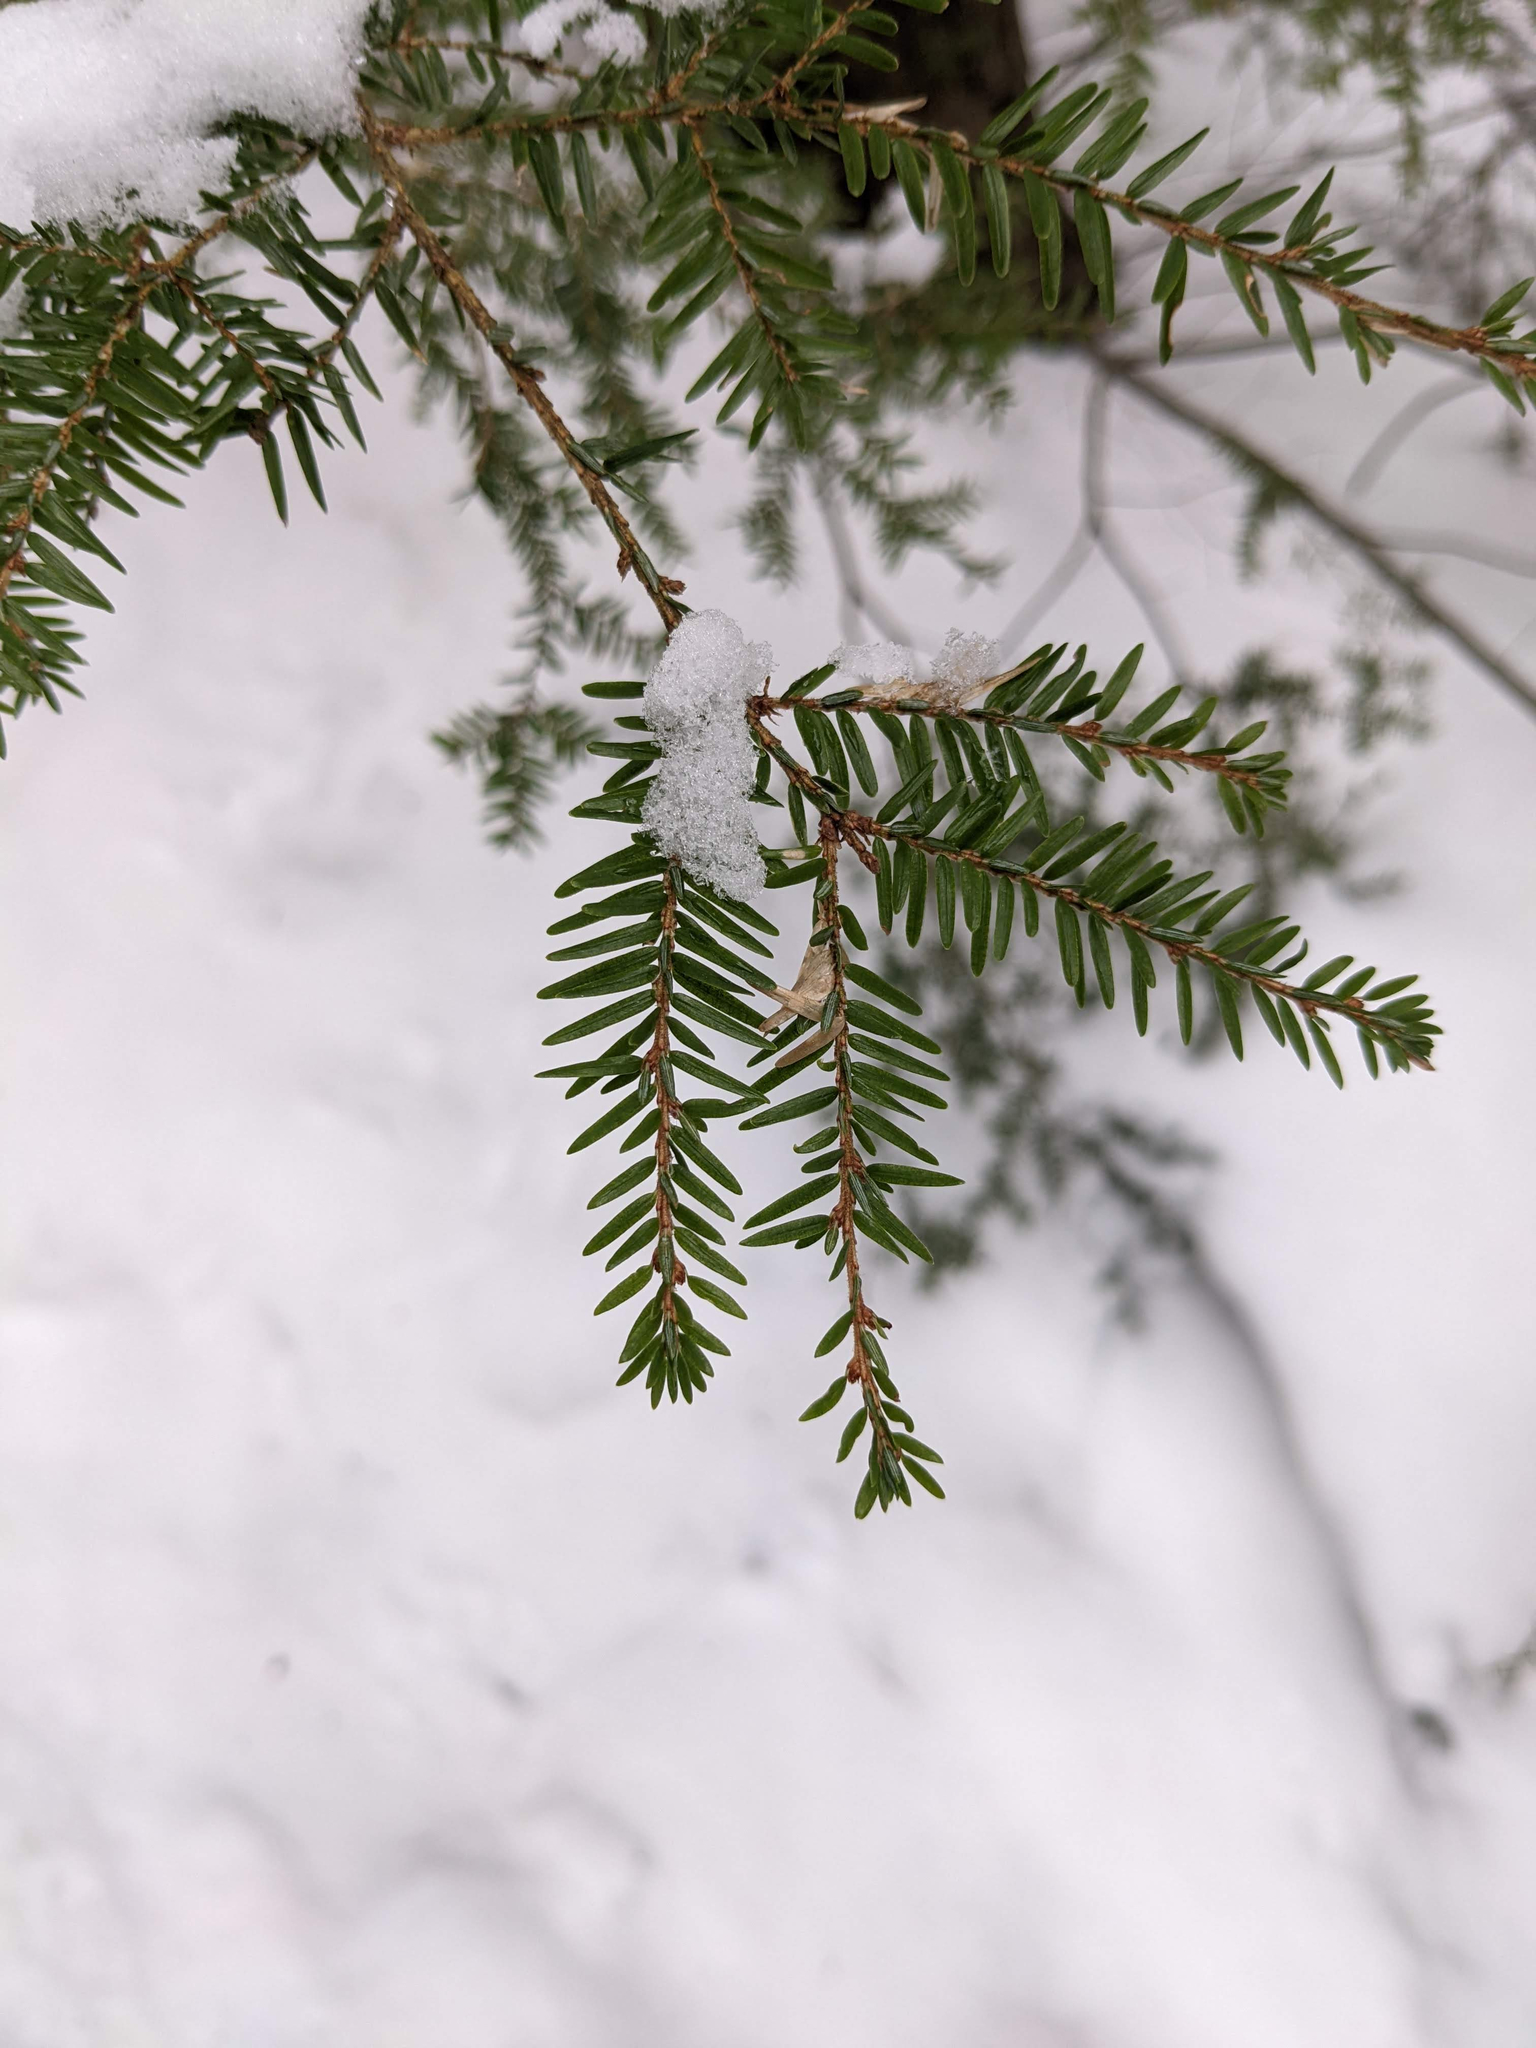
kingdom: Plantae
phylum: Tracheophyta
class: Pinopsida
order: Pinales
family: Pinaceae
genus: Tsuga
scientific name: Tsuga canadensis
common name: Eastern hemlock
